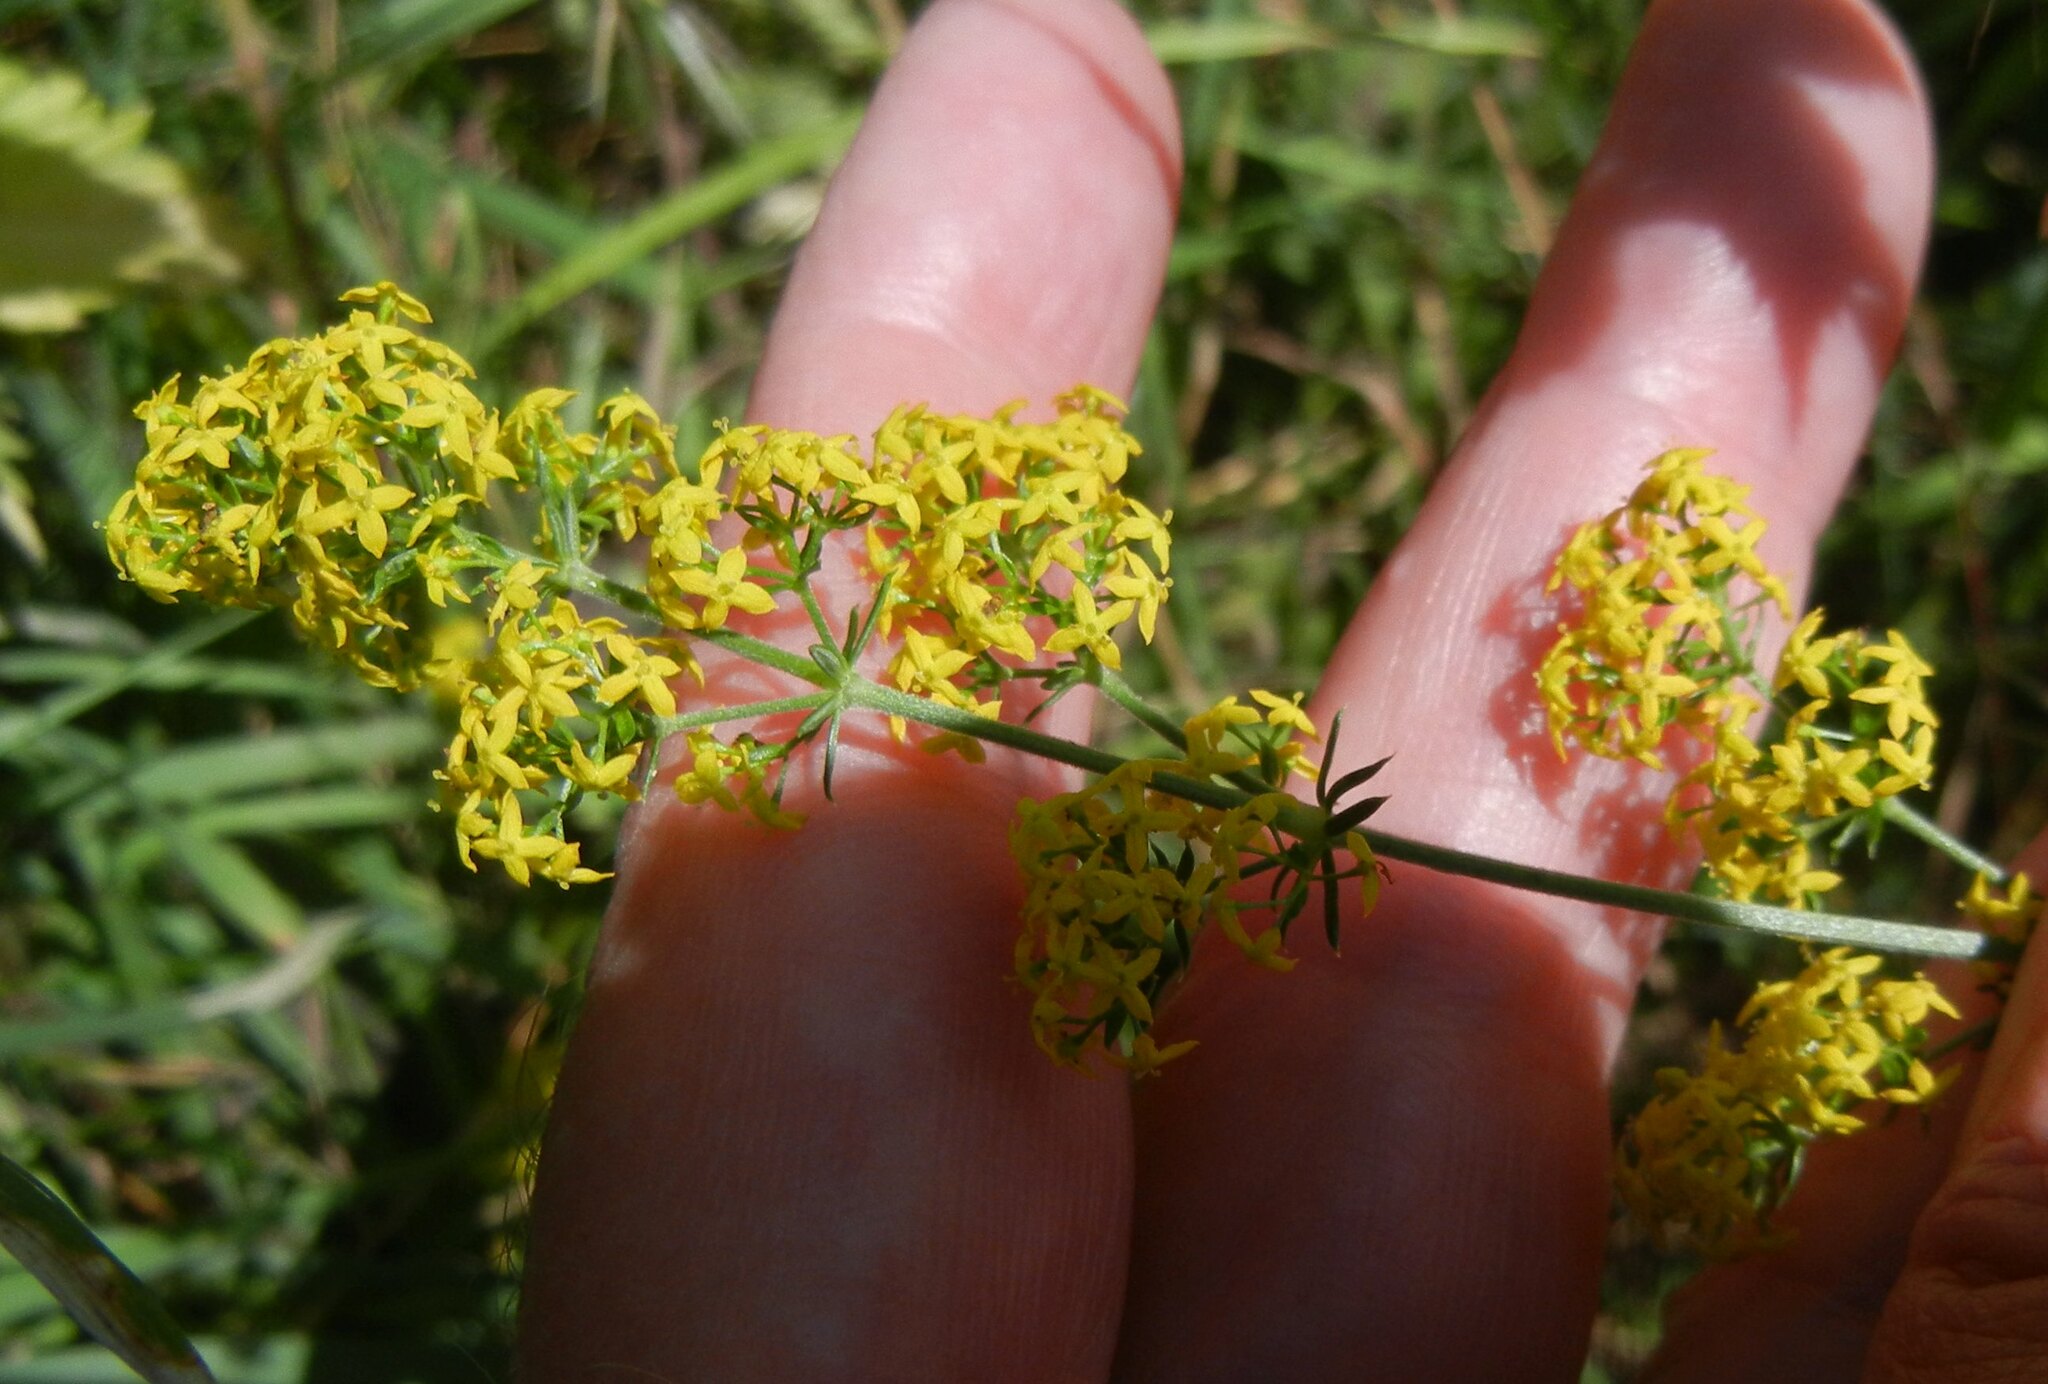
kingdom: Plantae
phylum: Tracheophyta
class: Magnoliopsida
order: Gentianales
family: Rubiaceae
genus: Galium
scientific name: Galium verum
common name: Lady's bedstraw
